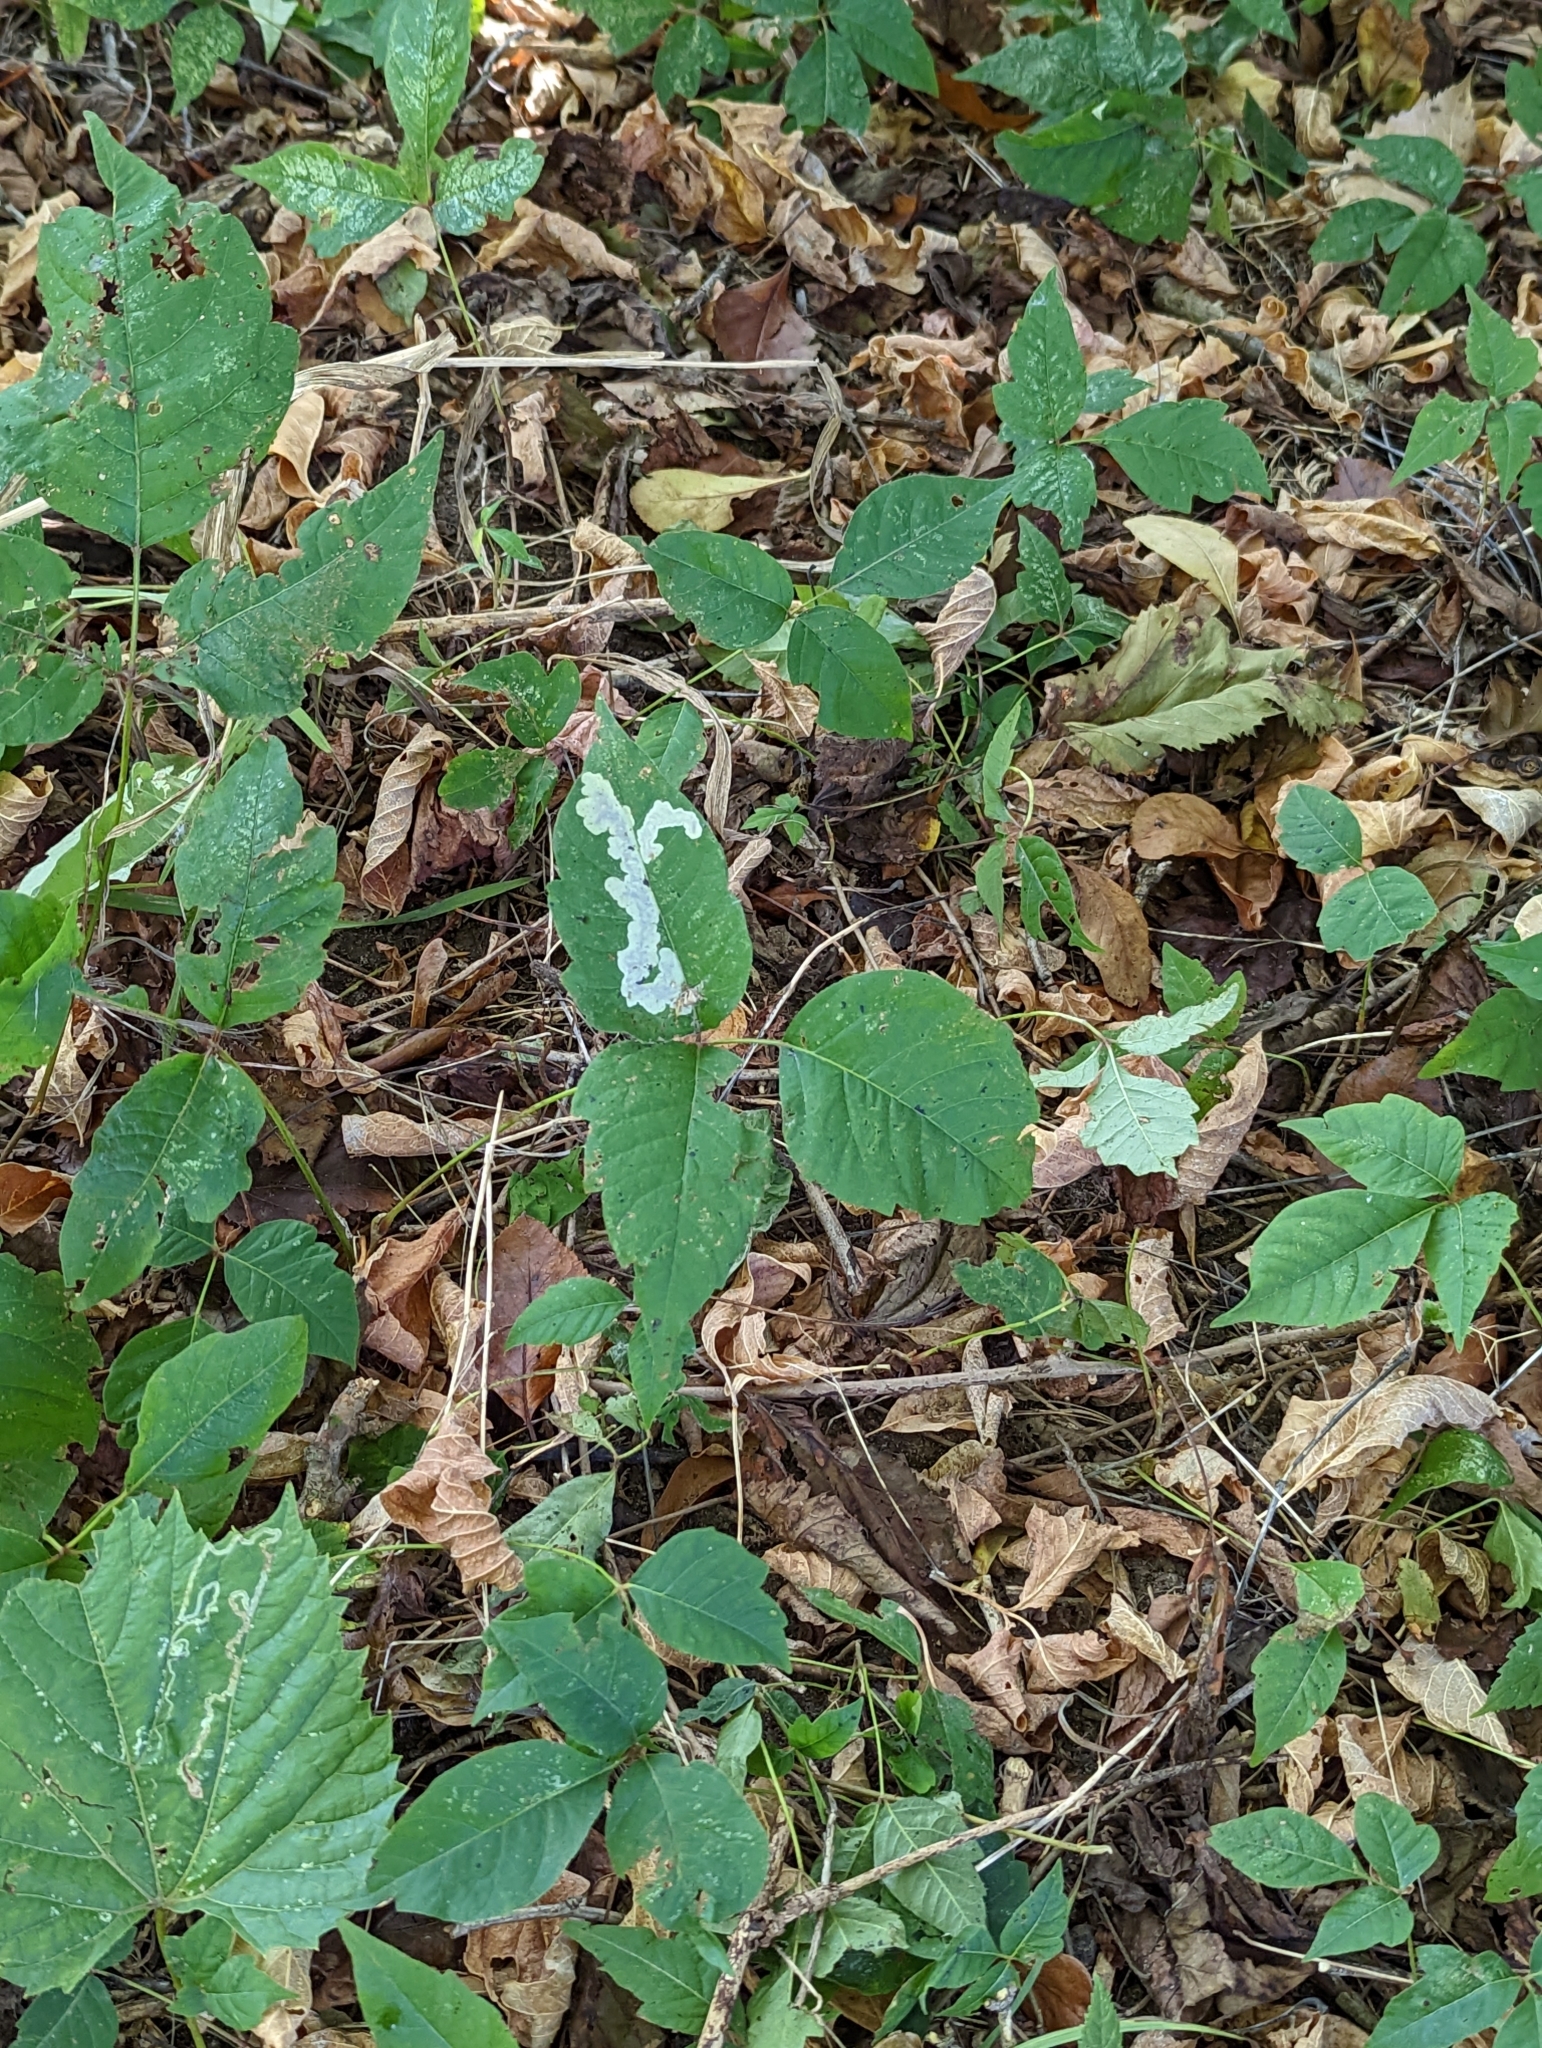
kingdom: Animalia
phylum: Arthropoda
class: Insecta
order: Lepidoptera
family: Gracillariidae
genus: Cameraria
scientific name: Cameraria guttifinitella
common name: Poison ivy leaf-miner moth
